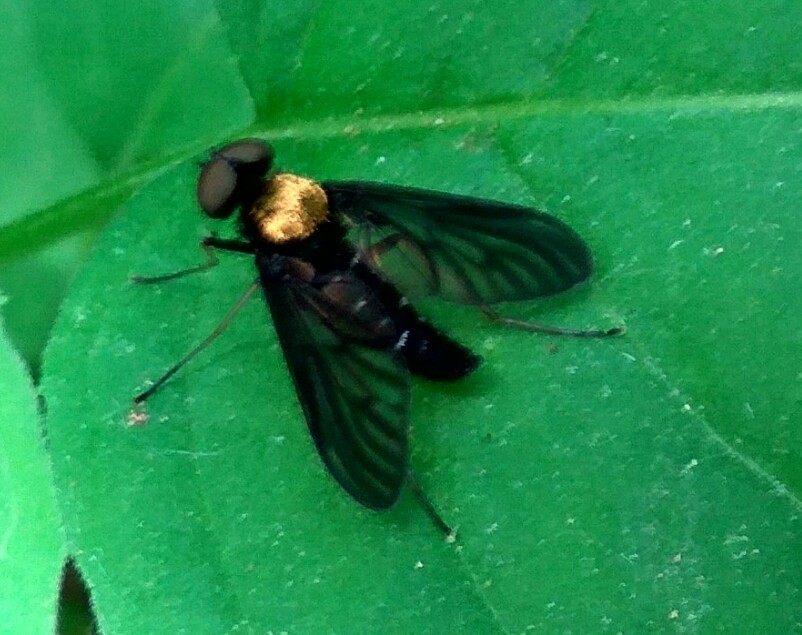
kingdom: Animalia
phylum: Arthropoda
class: Insecta
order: Diptera
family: Rhagionidae
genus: Chrysopilus
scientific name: Chrysopilus thoracicus
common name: Golden-backed snipe fly
